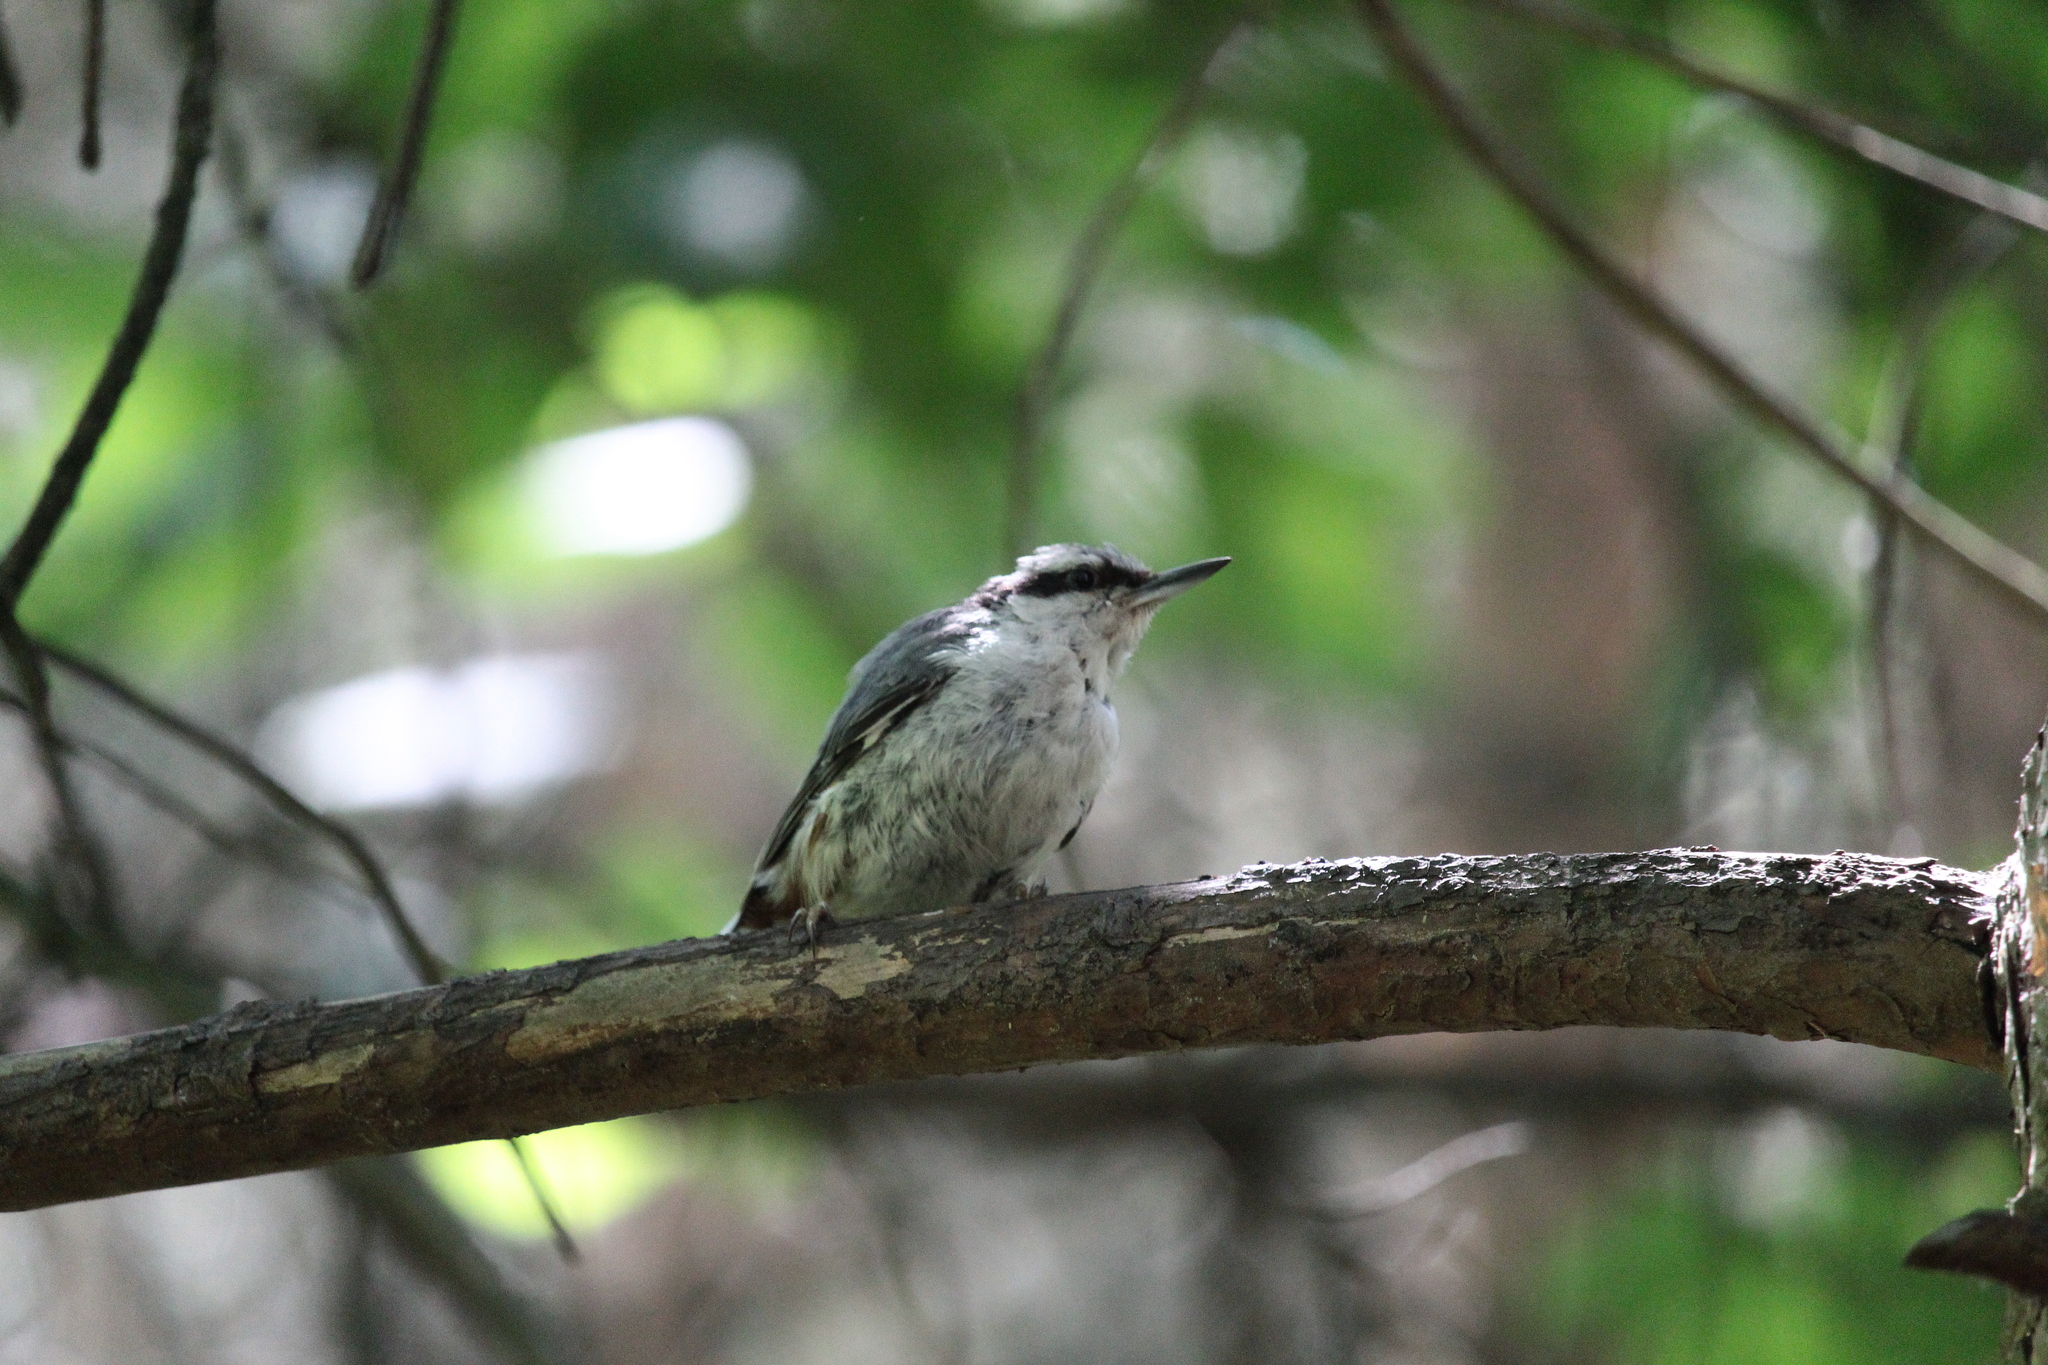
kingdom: Animalia
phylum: Chordata
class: Aves
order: Passeriformes
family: Sittidae
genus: Sitta
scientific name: Sitta europaea
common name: Eurasian nuthatch
